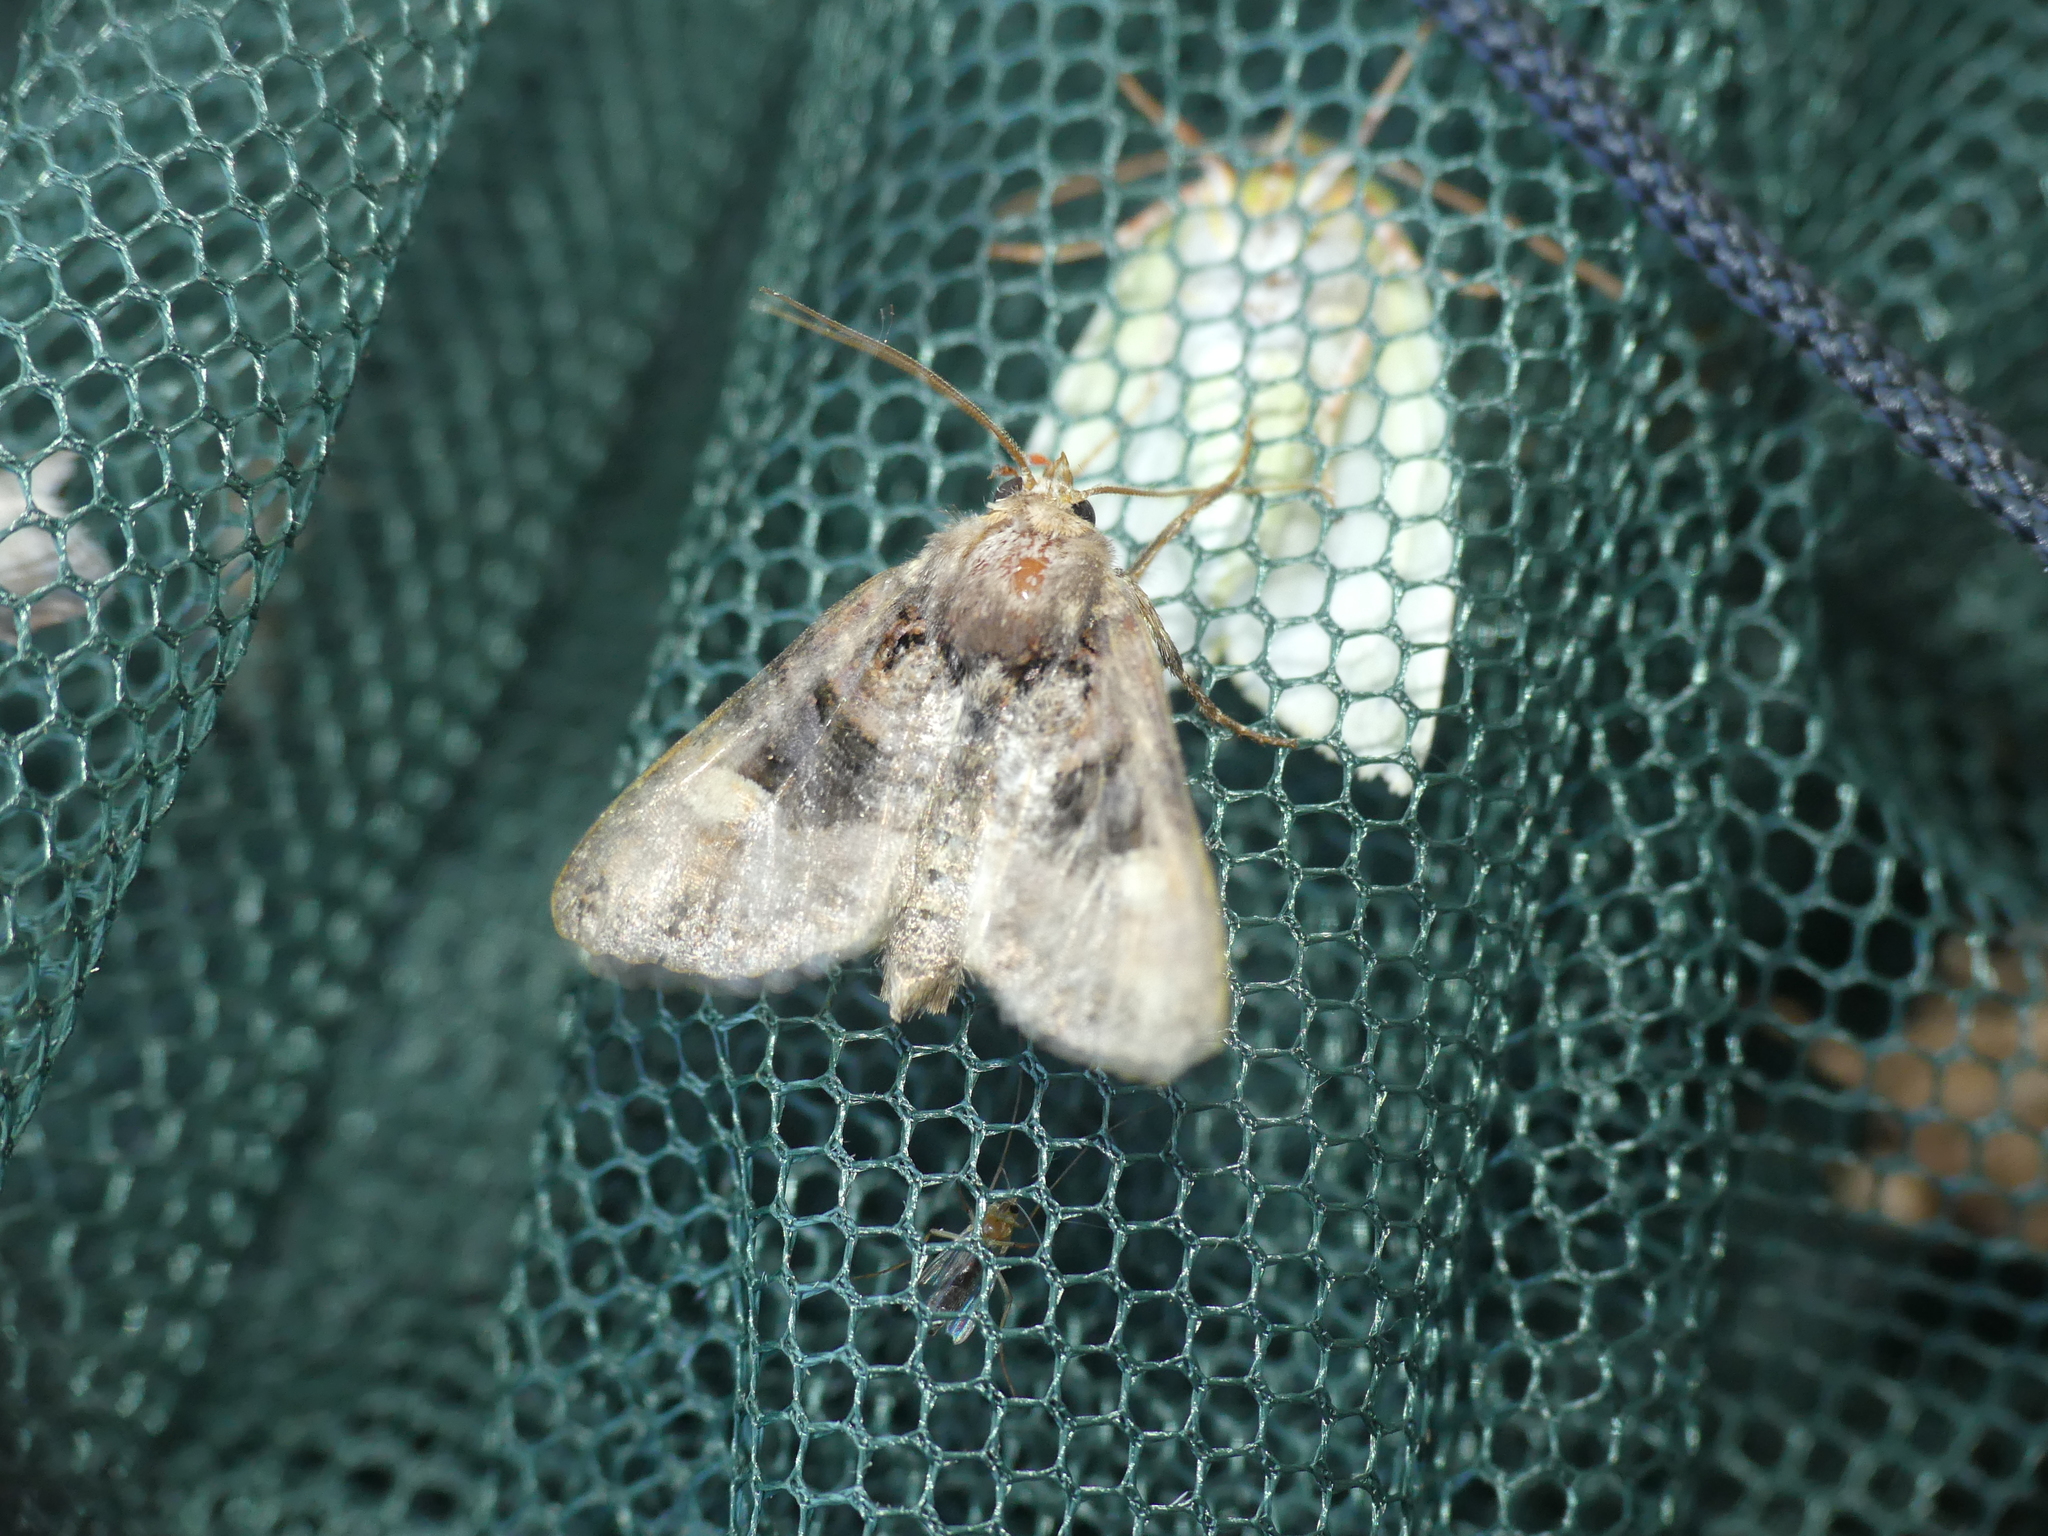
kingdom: Animalia
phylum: Arthropoda
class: Insecta
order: Lepidoptera
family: Noctuidae
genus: Euplexia
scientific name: Euplexia lucipara
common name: Small angle shades
